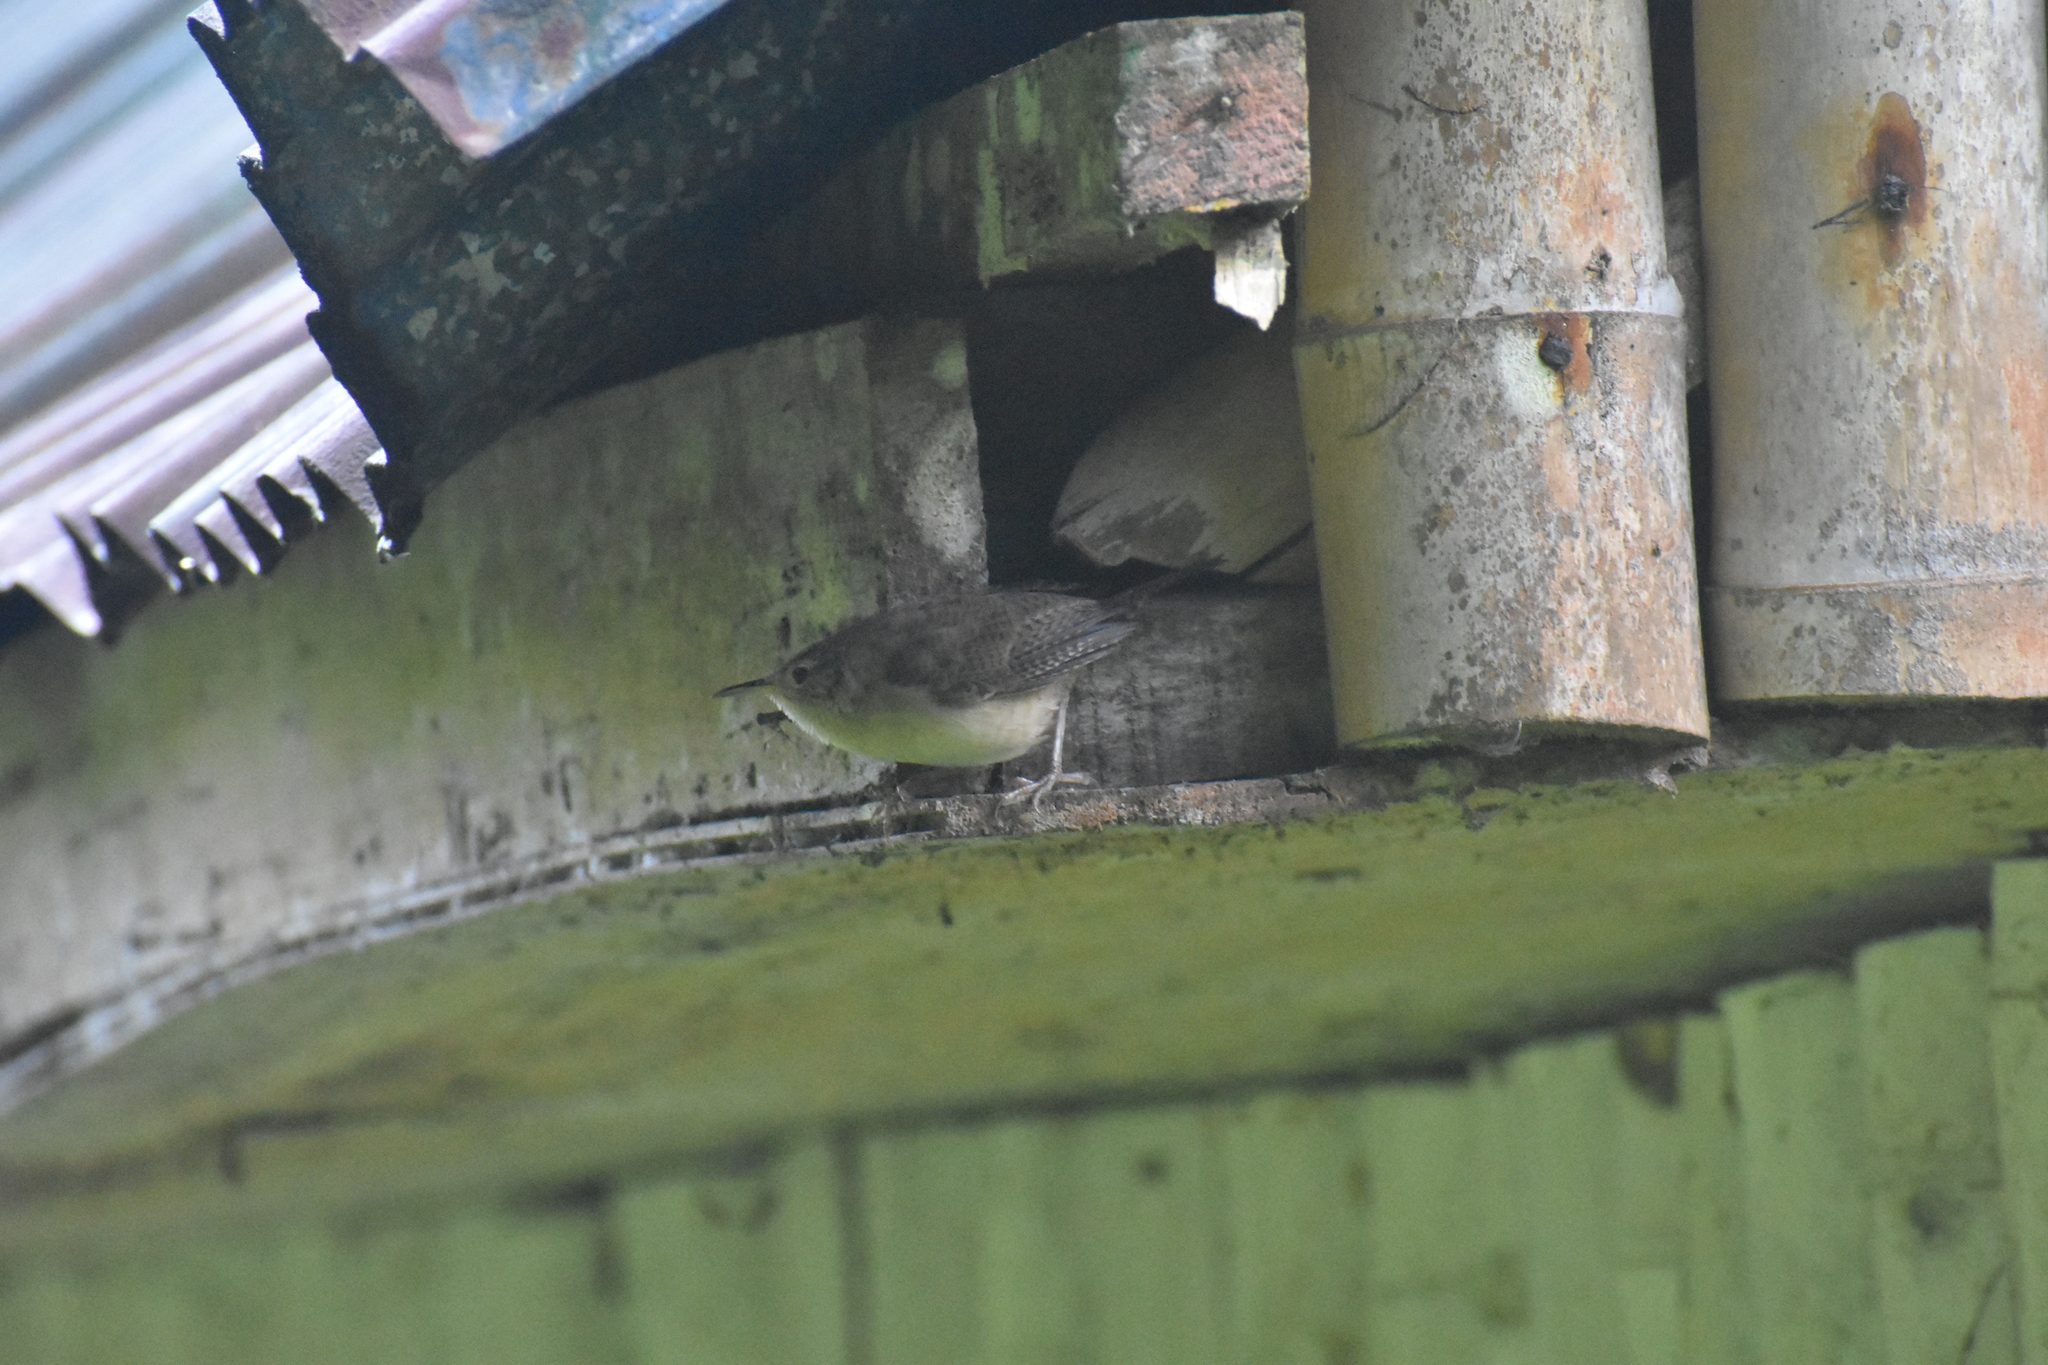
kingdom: Animalia
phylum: Chordata
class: Aves
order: Passeriformes
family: Troglodytidae
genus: Troglodytes
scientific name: Troglodytes aedon
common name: House wren
